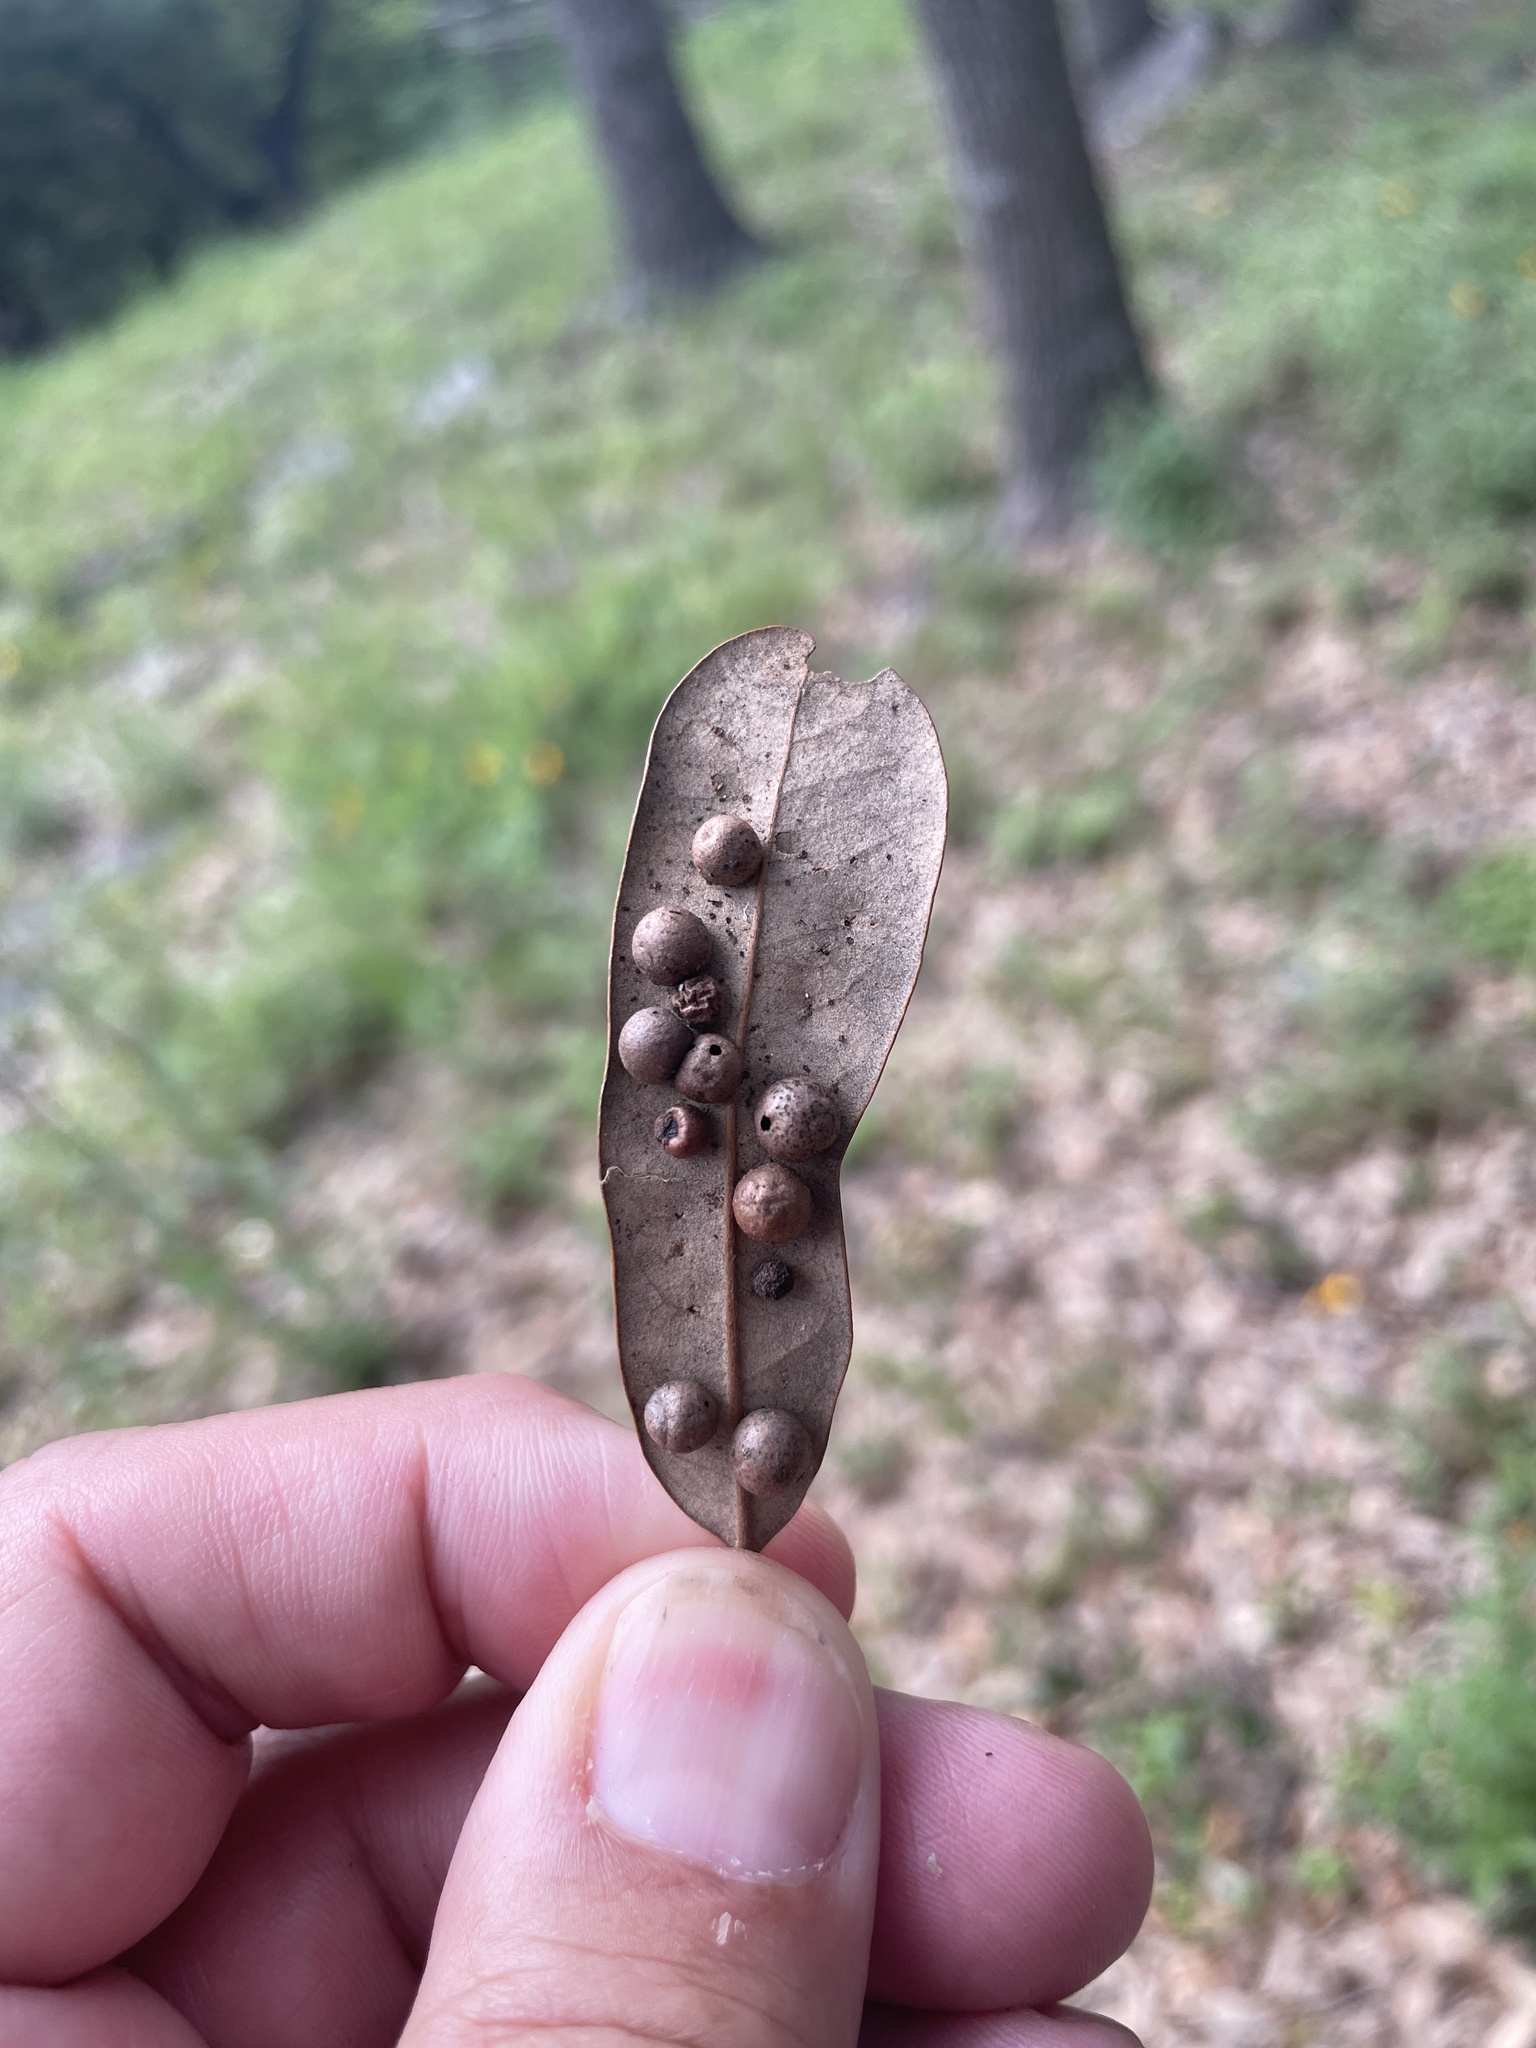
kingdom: Animalia
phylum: Arthropoda
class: Insecta
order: Hymenoptera
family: Cynipidae
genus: Belonocnema
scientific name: Belonocnema kinseyi
